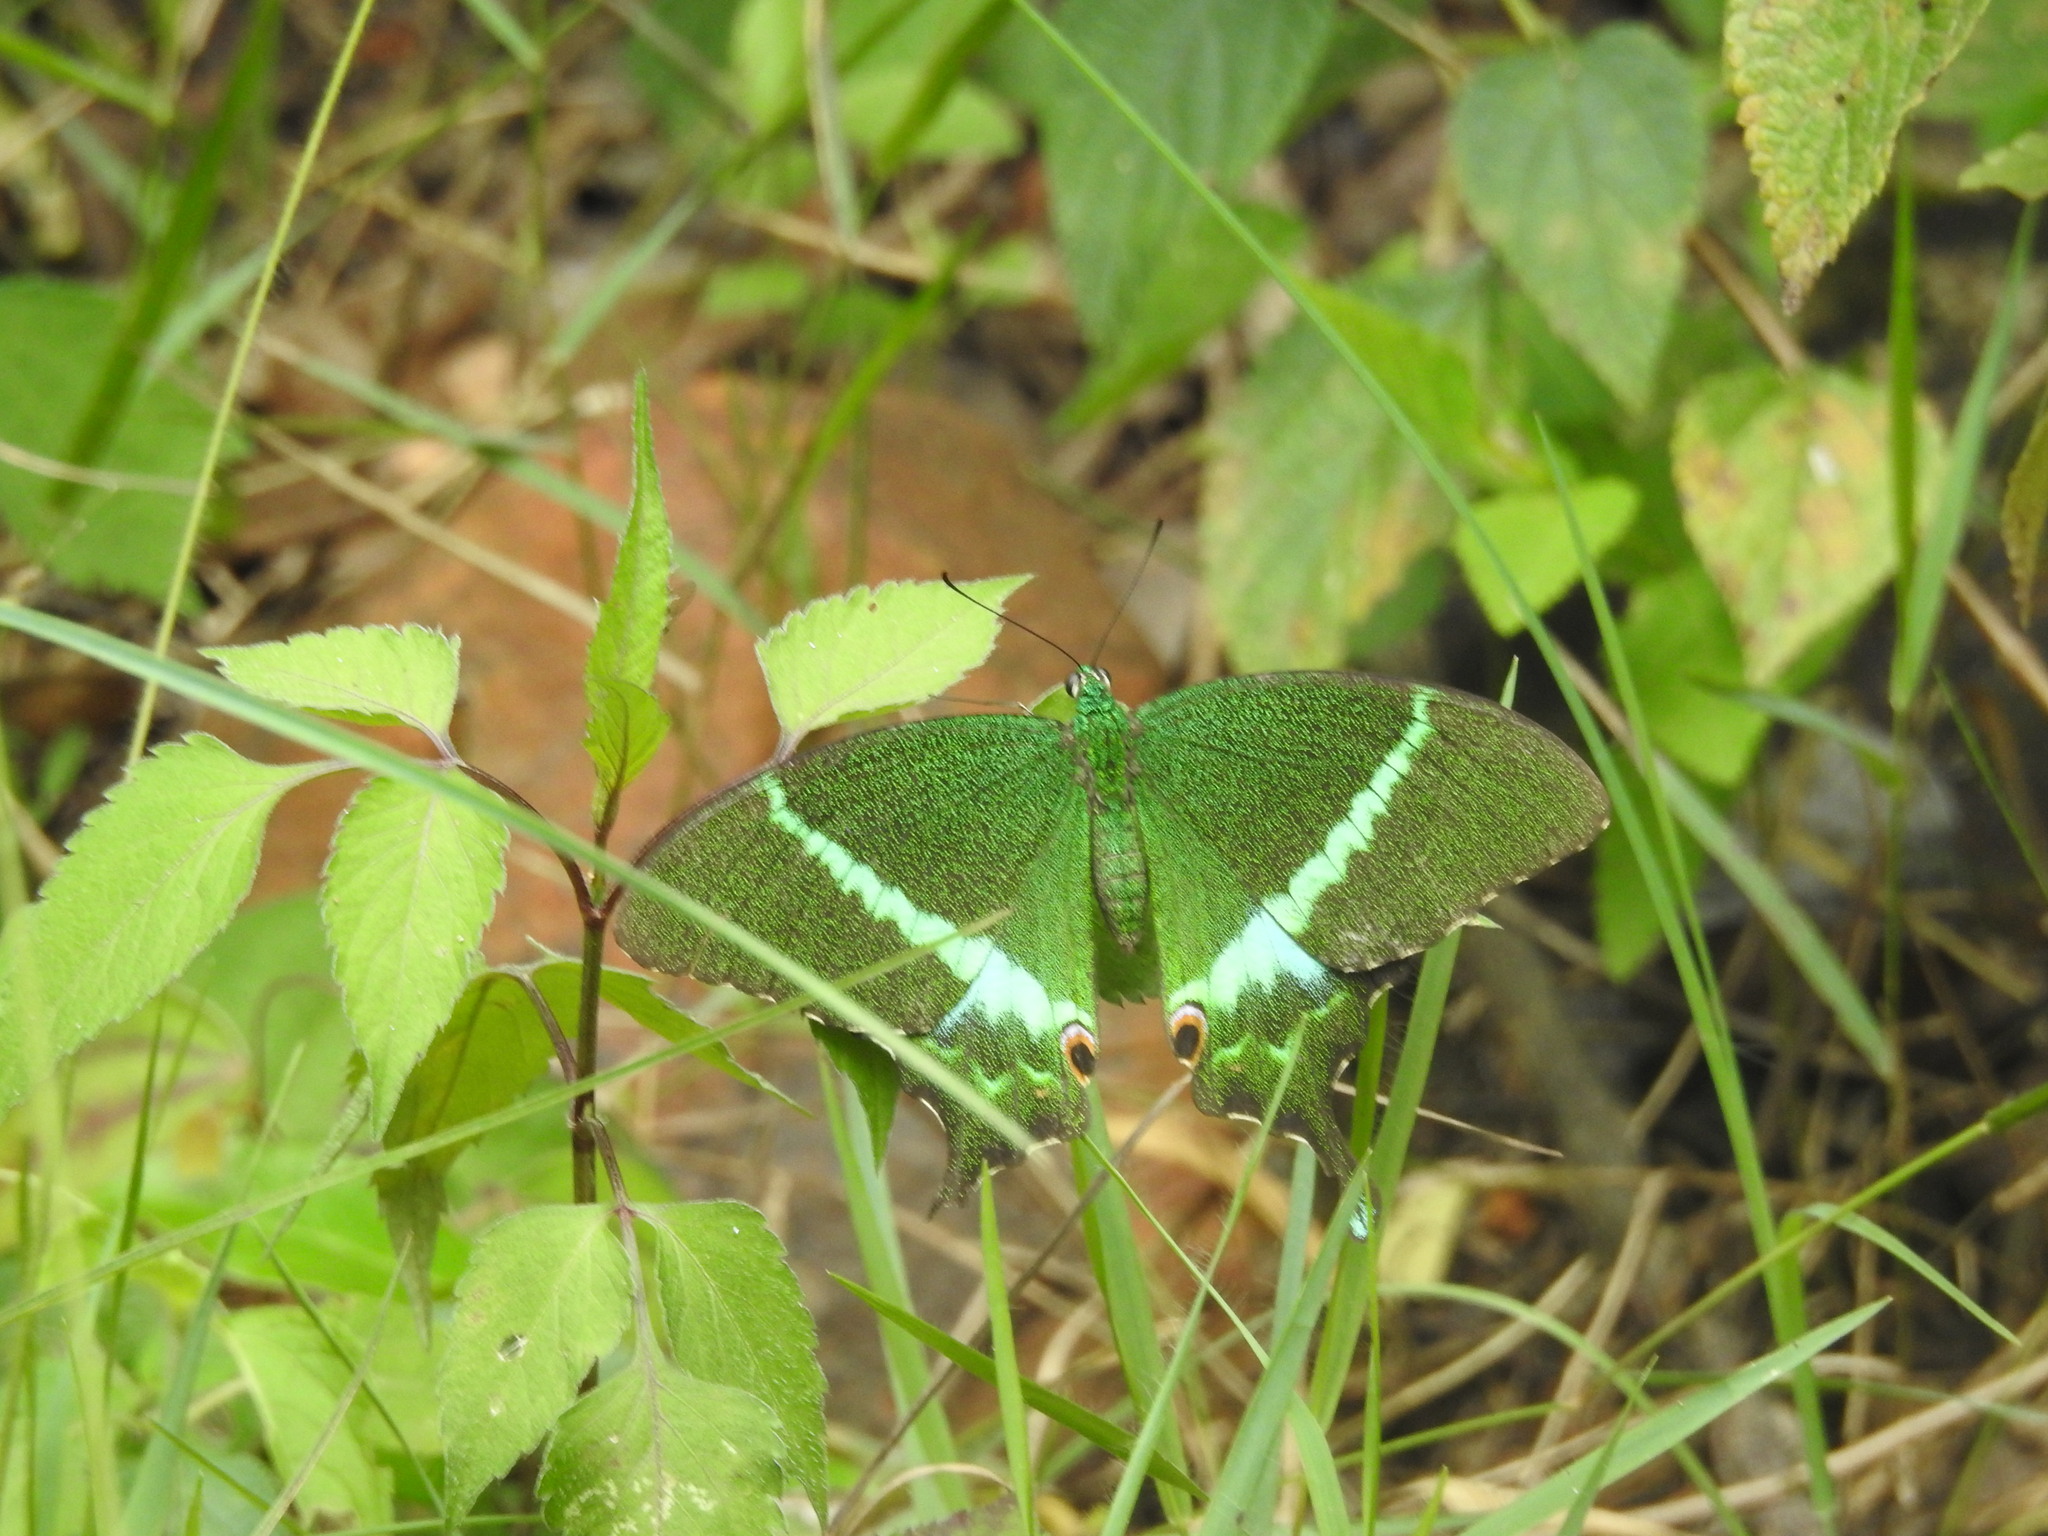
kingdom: Animalia
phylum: Arthropoda
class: Insecta
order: Lepidoptera
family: Papilionidae
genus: Papilio
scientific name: Papilio crino
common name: Common banded peacock
